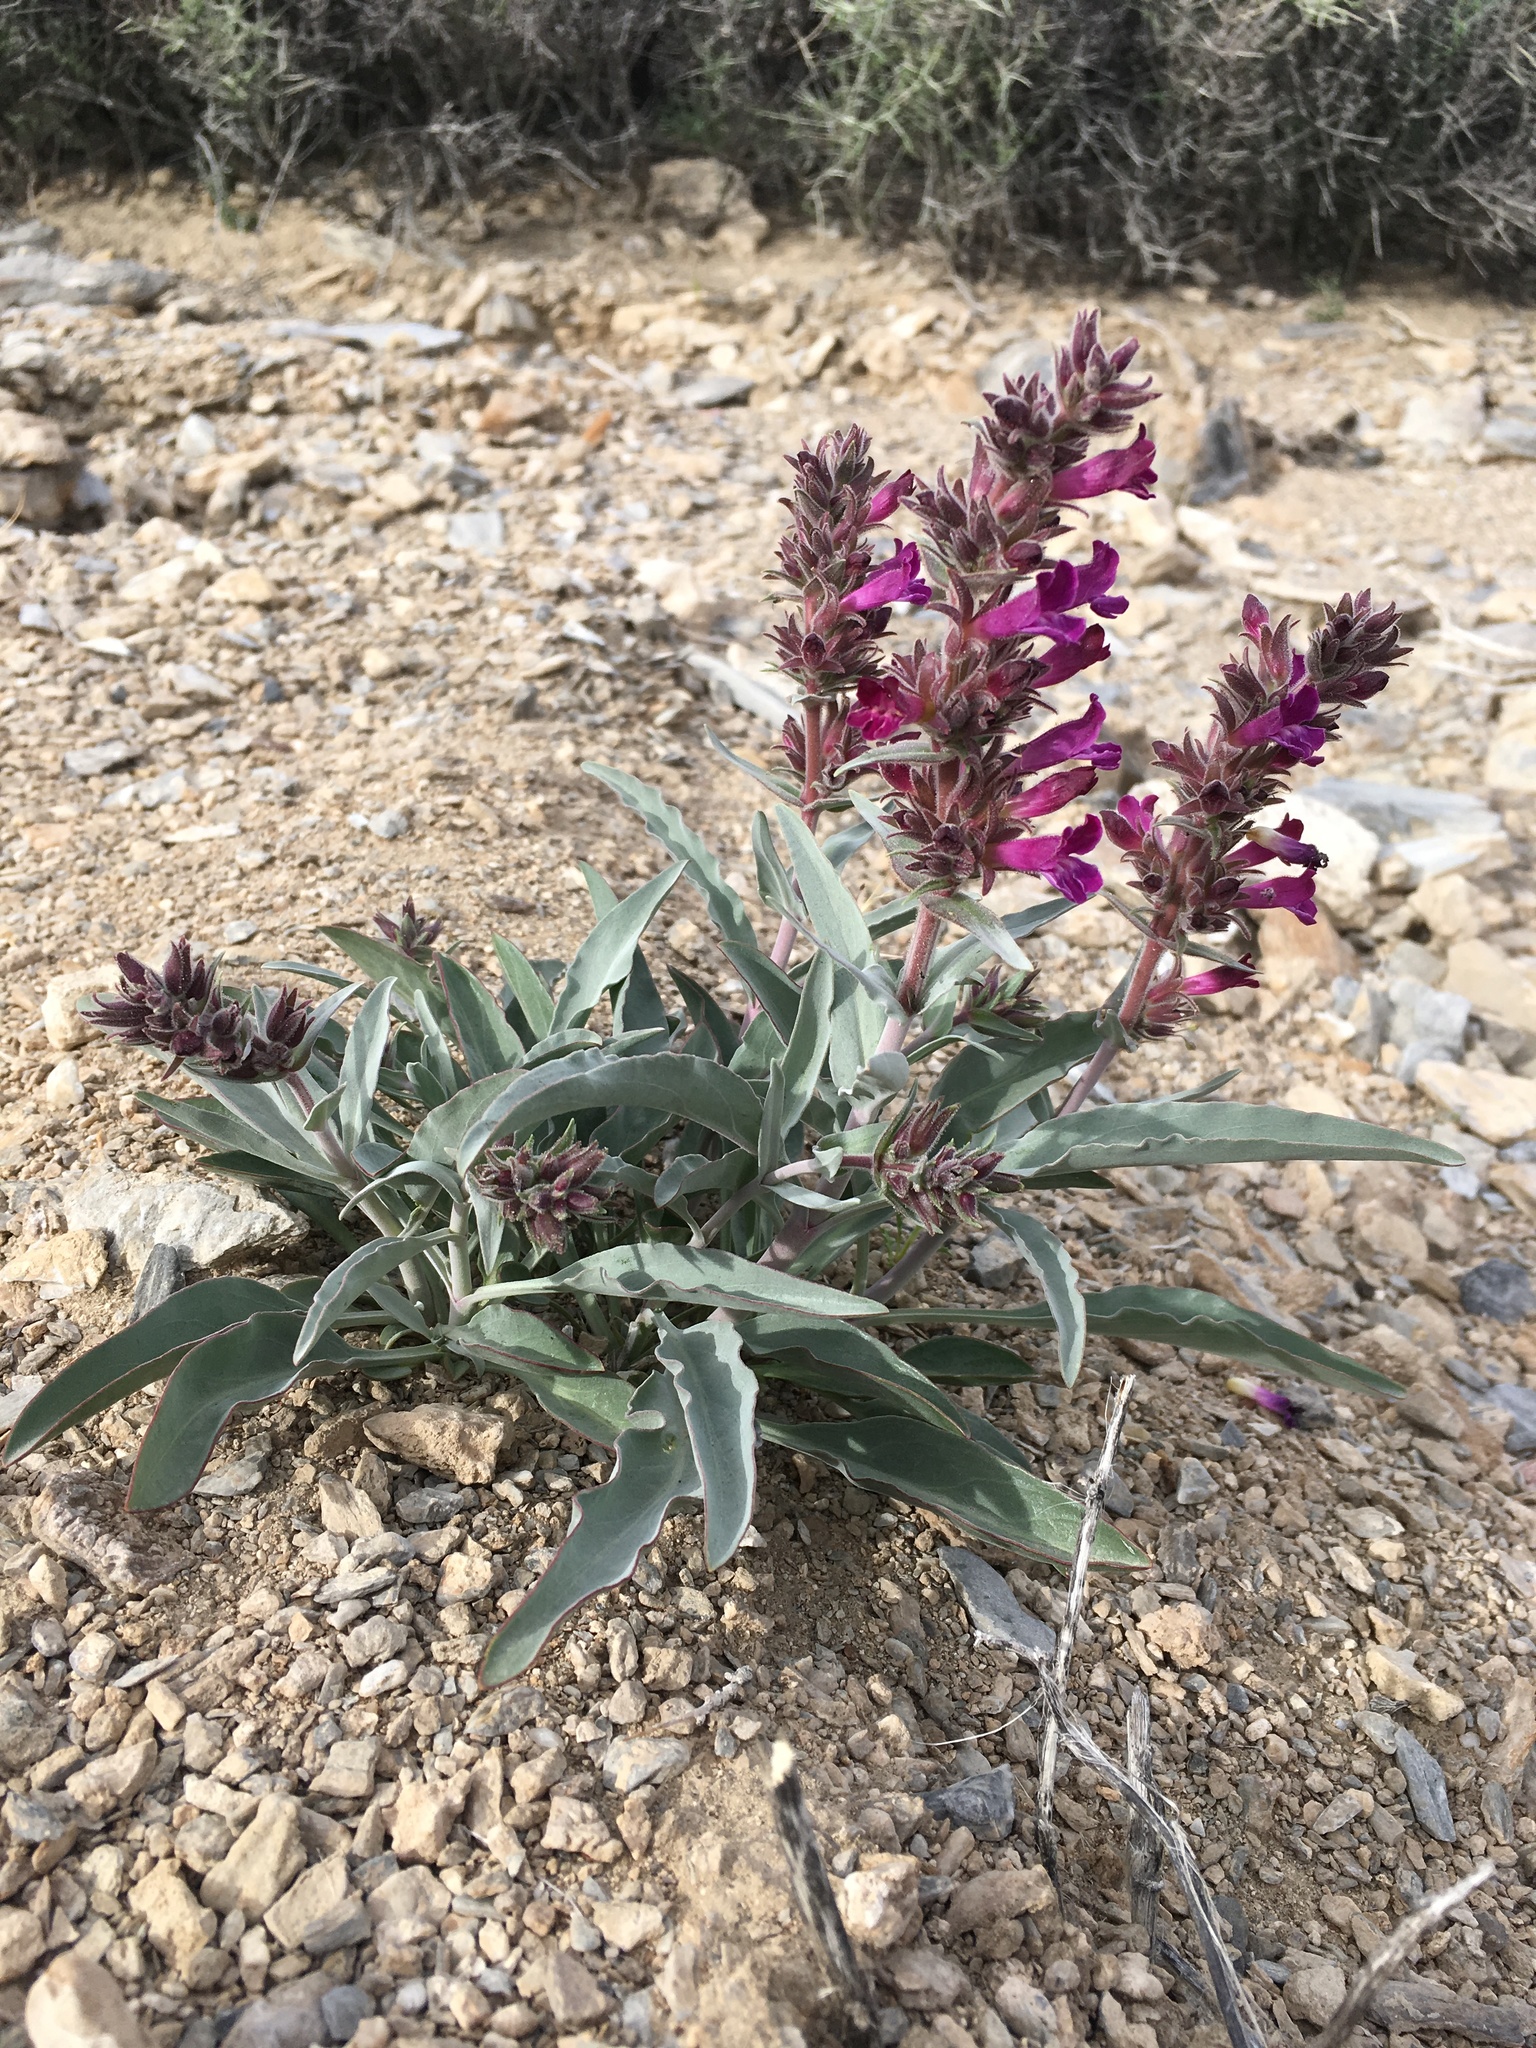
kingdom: Plantae
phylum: Tracheophyta
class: Magnoliopsida
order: Lamiales
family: Plantaginaceae
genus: Penstemon
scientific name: Penstemon monoensis
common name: Mono penstemon
